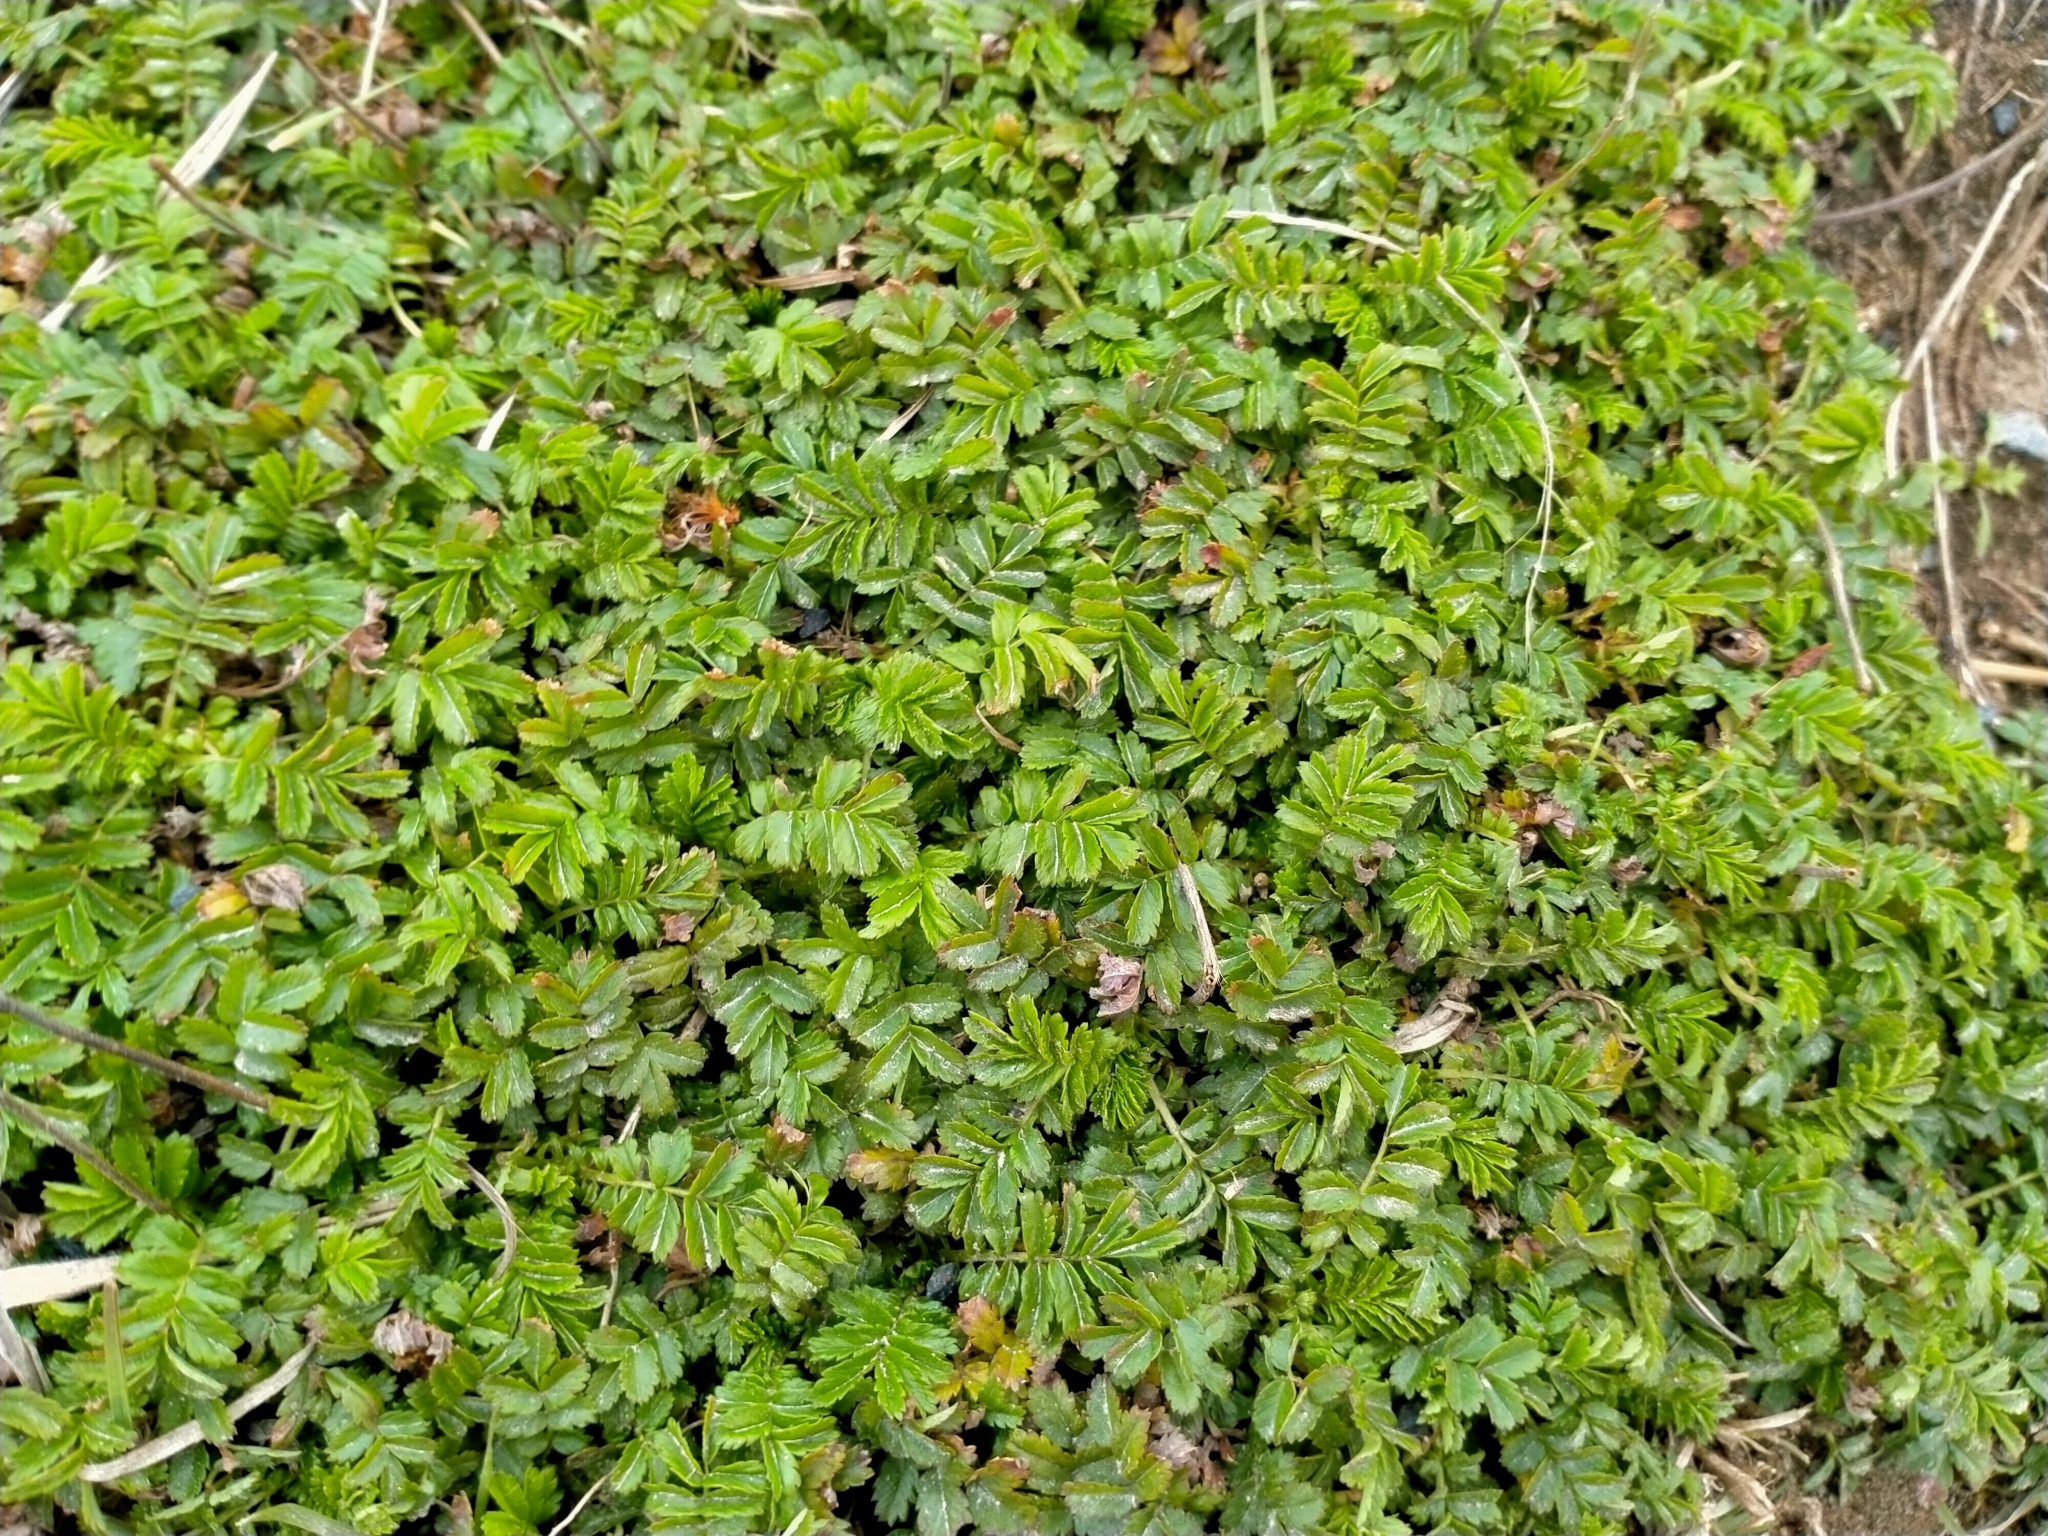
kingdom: Plantae
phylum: Tracheophyta
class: Magnoliopsida
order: Rosales
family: Rosaceae
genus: Acaena
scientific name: Acaena novae-zelandiae
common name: Pirri-pirri-bur
